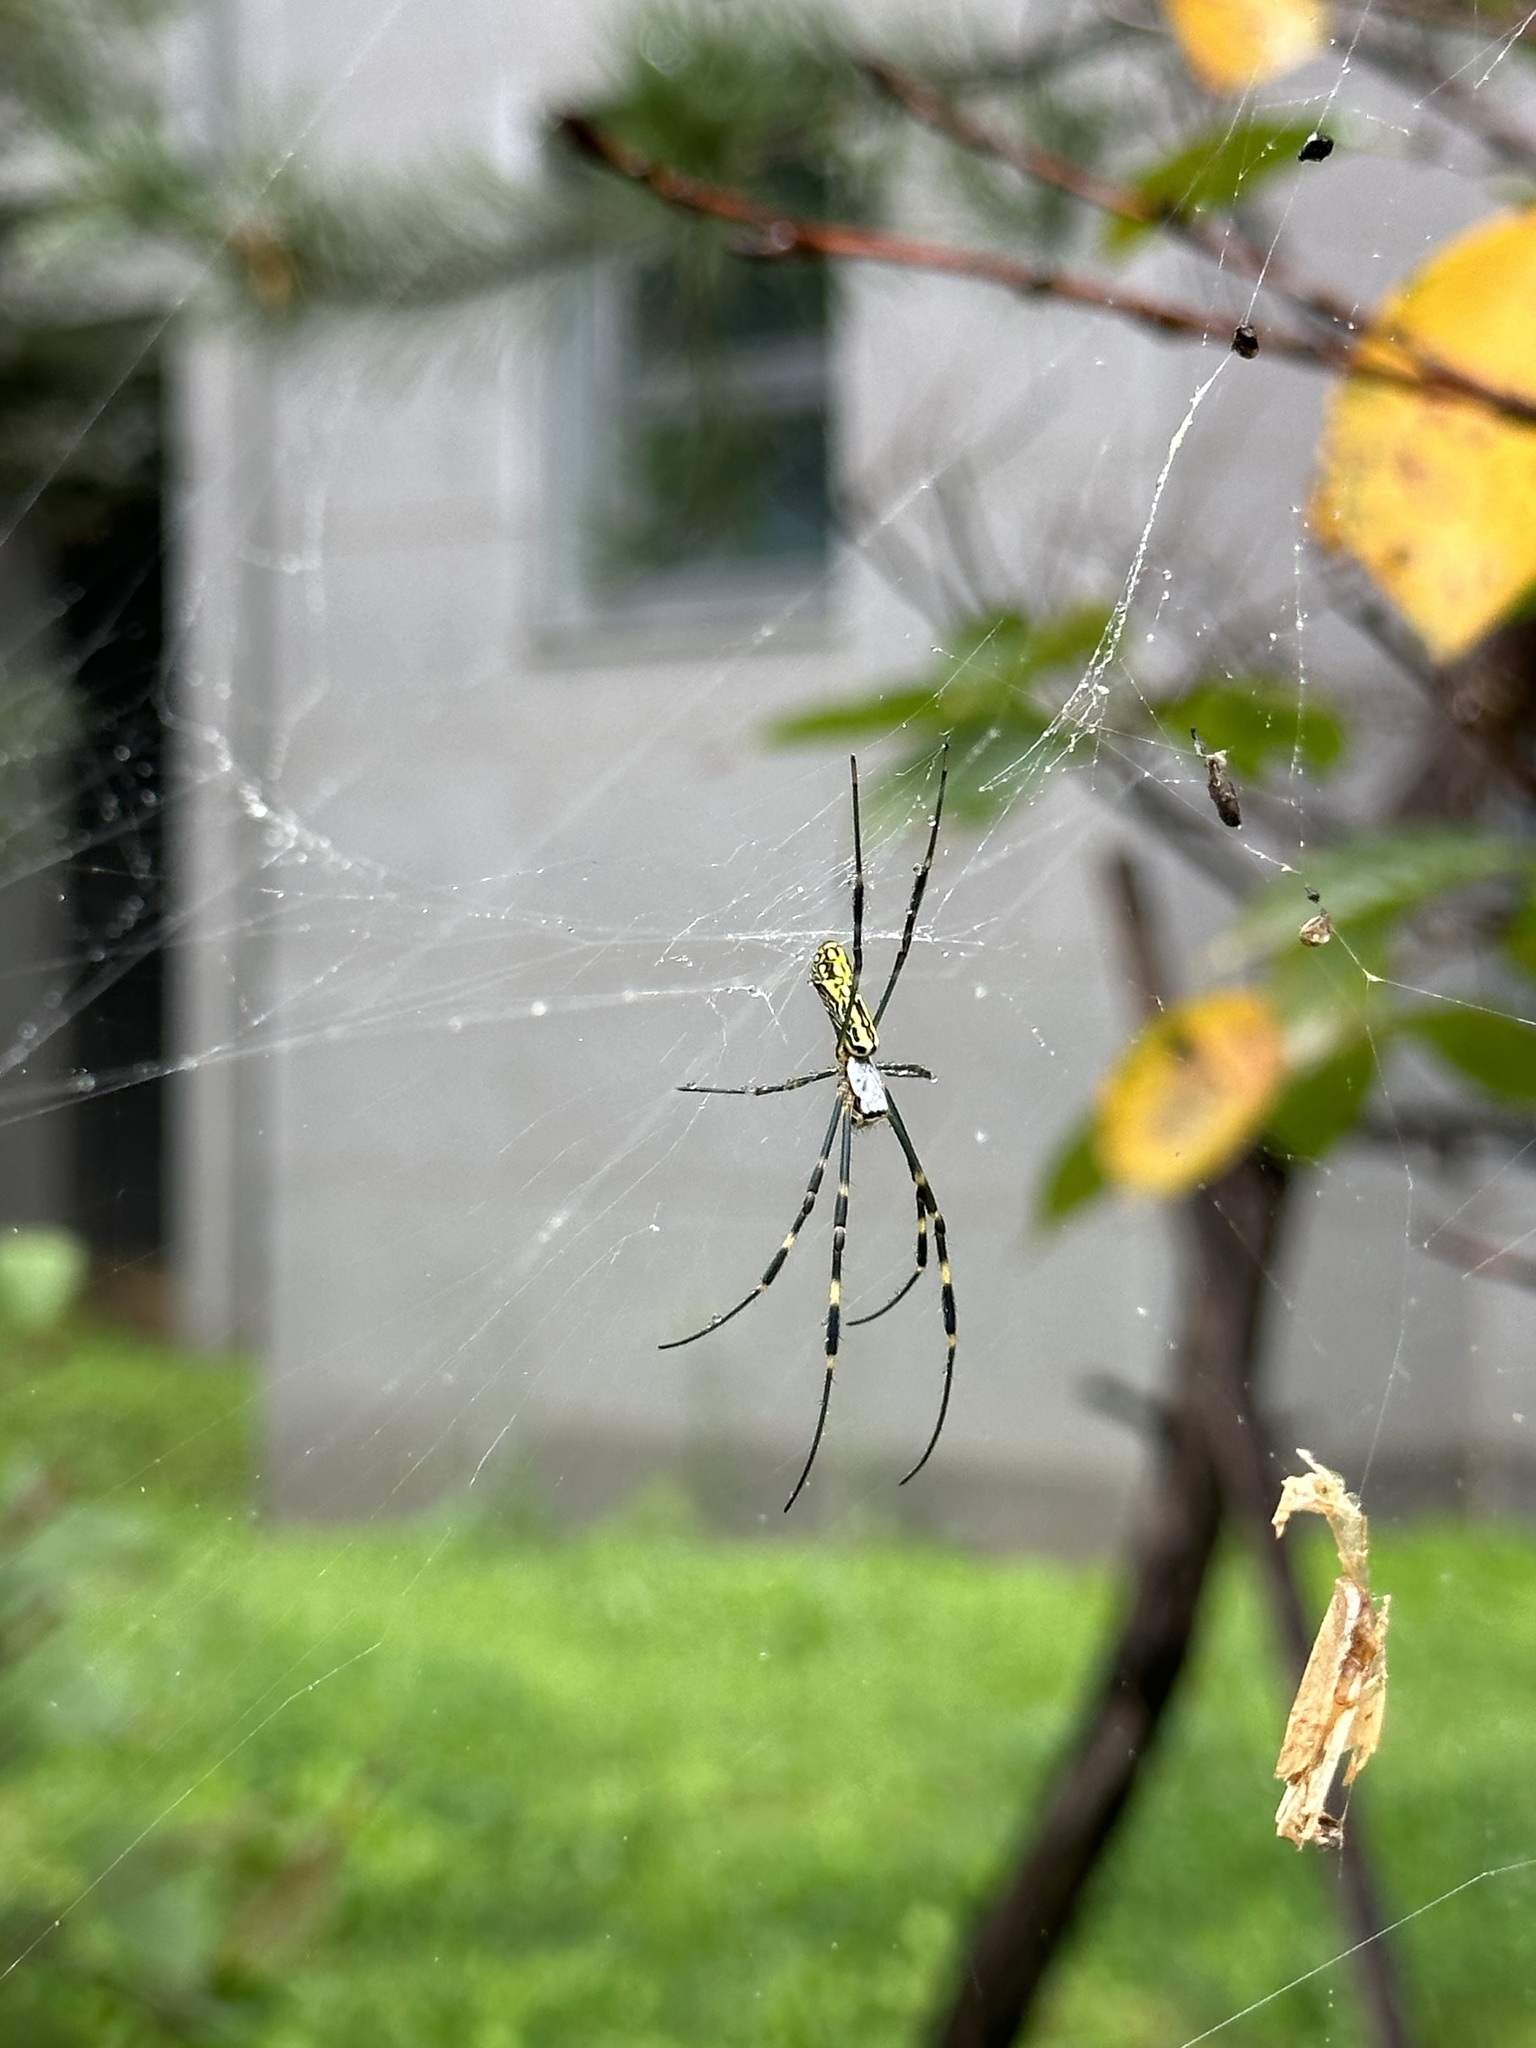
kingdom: Animalia
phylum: Arthropoda
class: Arachnida
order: Araneae
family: Araneidae
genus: Trichonephila
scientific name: Trichonephila clavata
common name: Jorō spider
